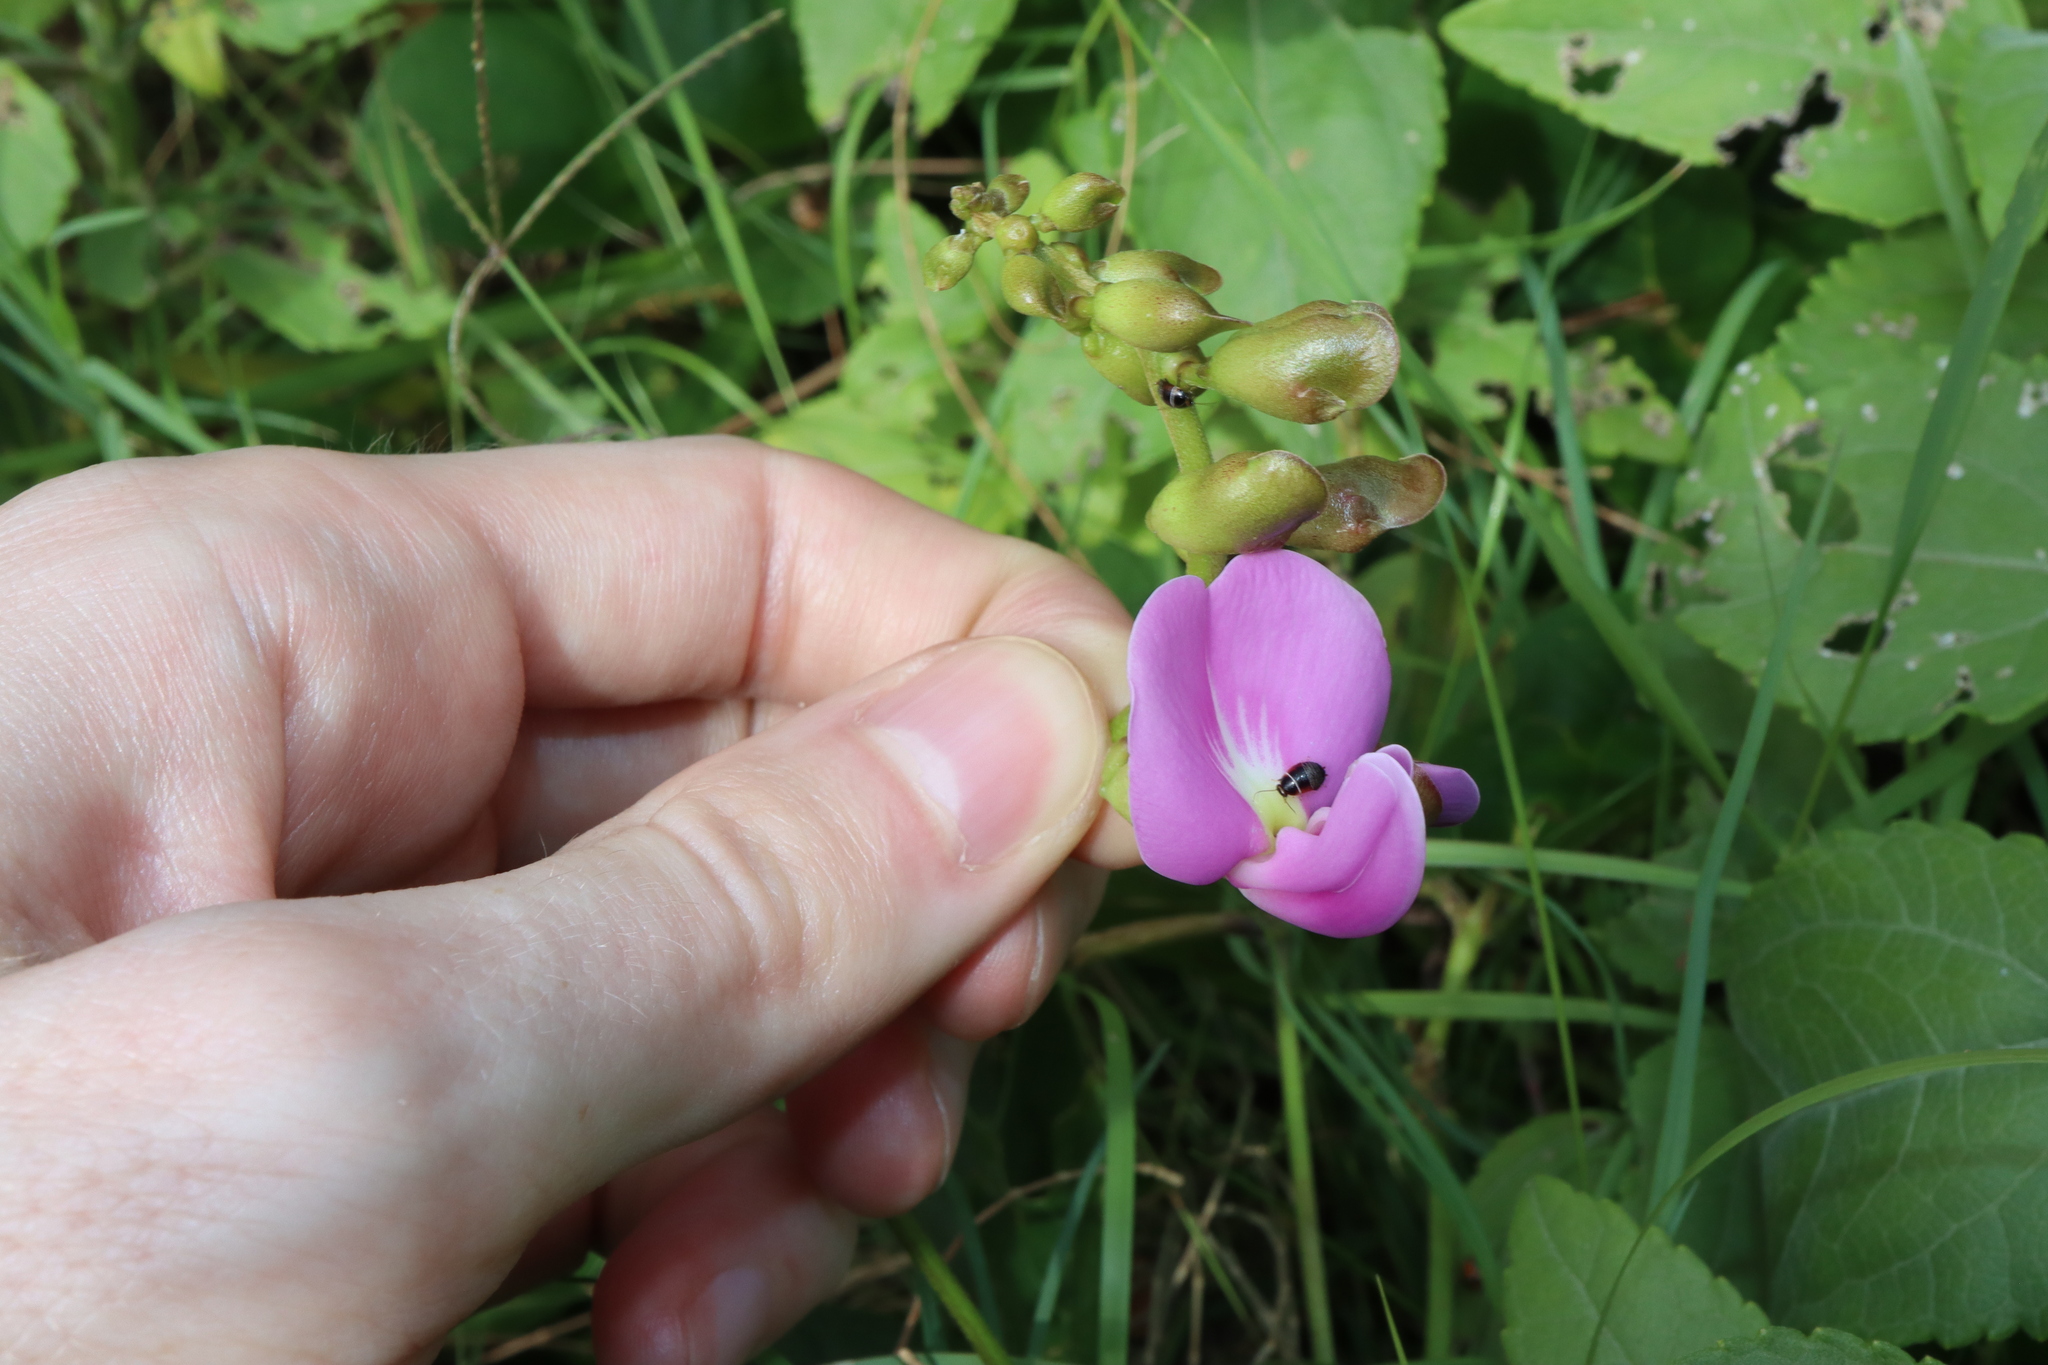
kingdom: Plantae
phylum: Tracheophyta
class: Magnoliopsida
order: Fabales
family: Fabaceae
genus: Canavalia
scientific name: Canavalia rosea
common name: Beach-bean
